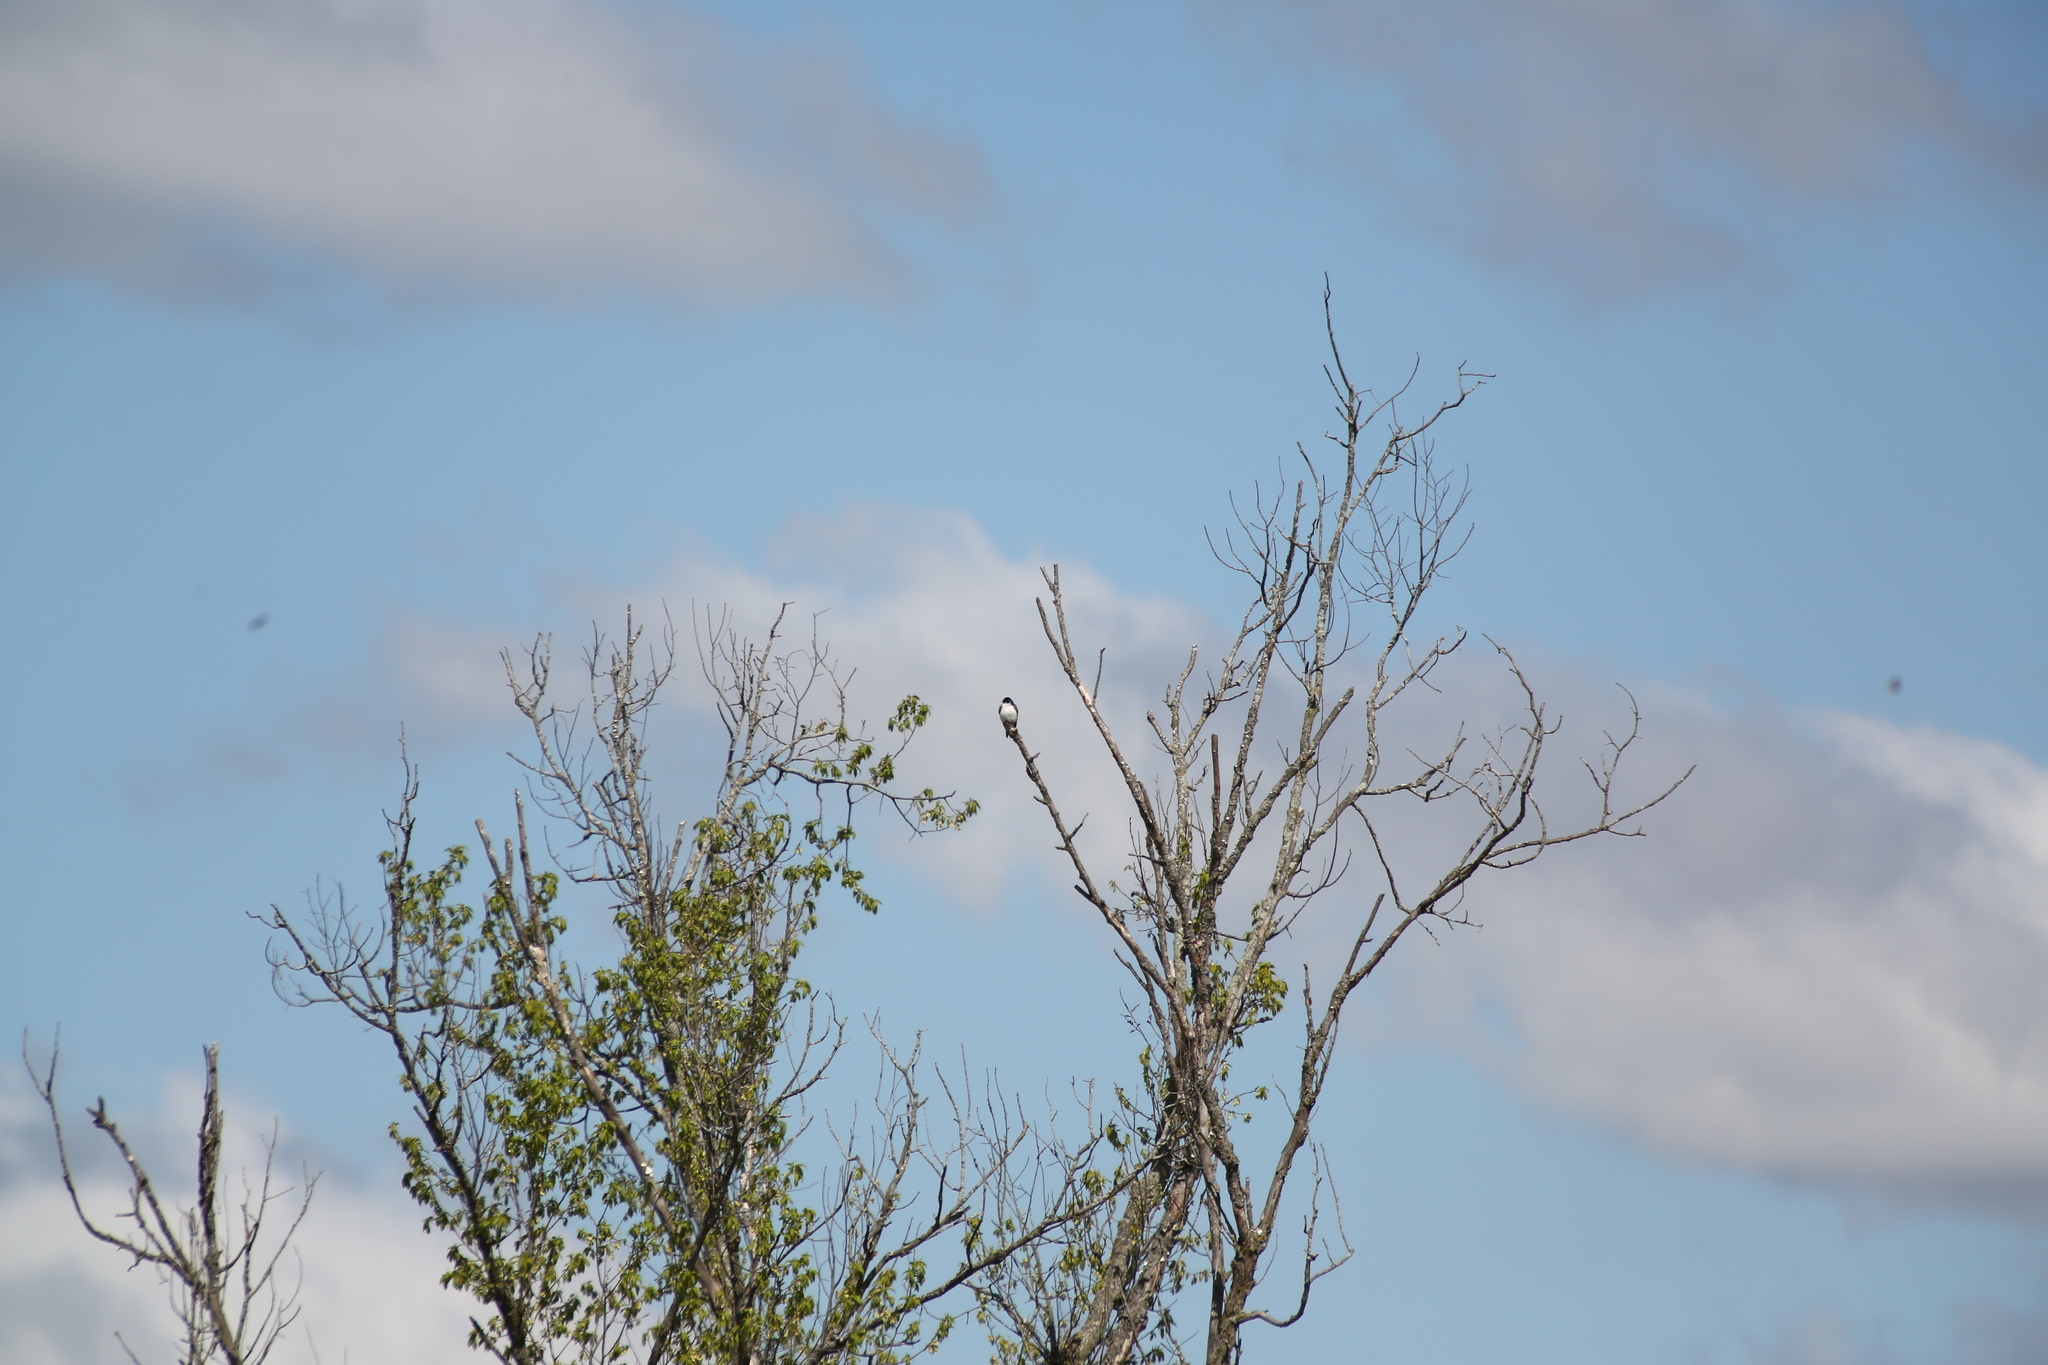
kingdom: Animalia
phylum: Chordata
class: Aves
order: Passeriformes
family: Hirundinidae
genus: Tachycineta
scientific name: Tachycineta bicolor
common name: Tree swallow
